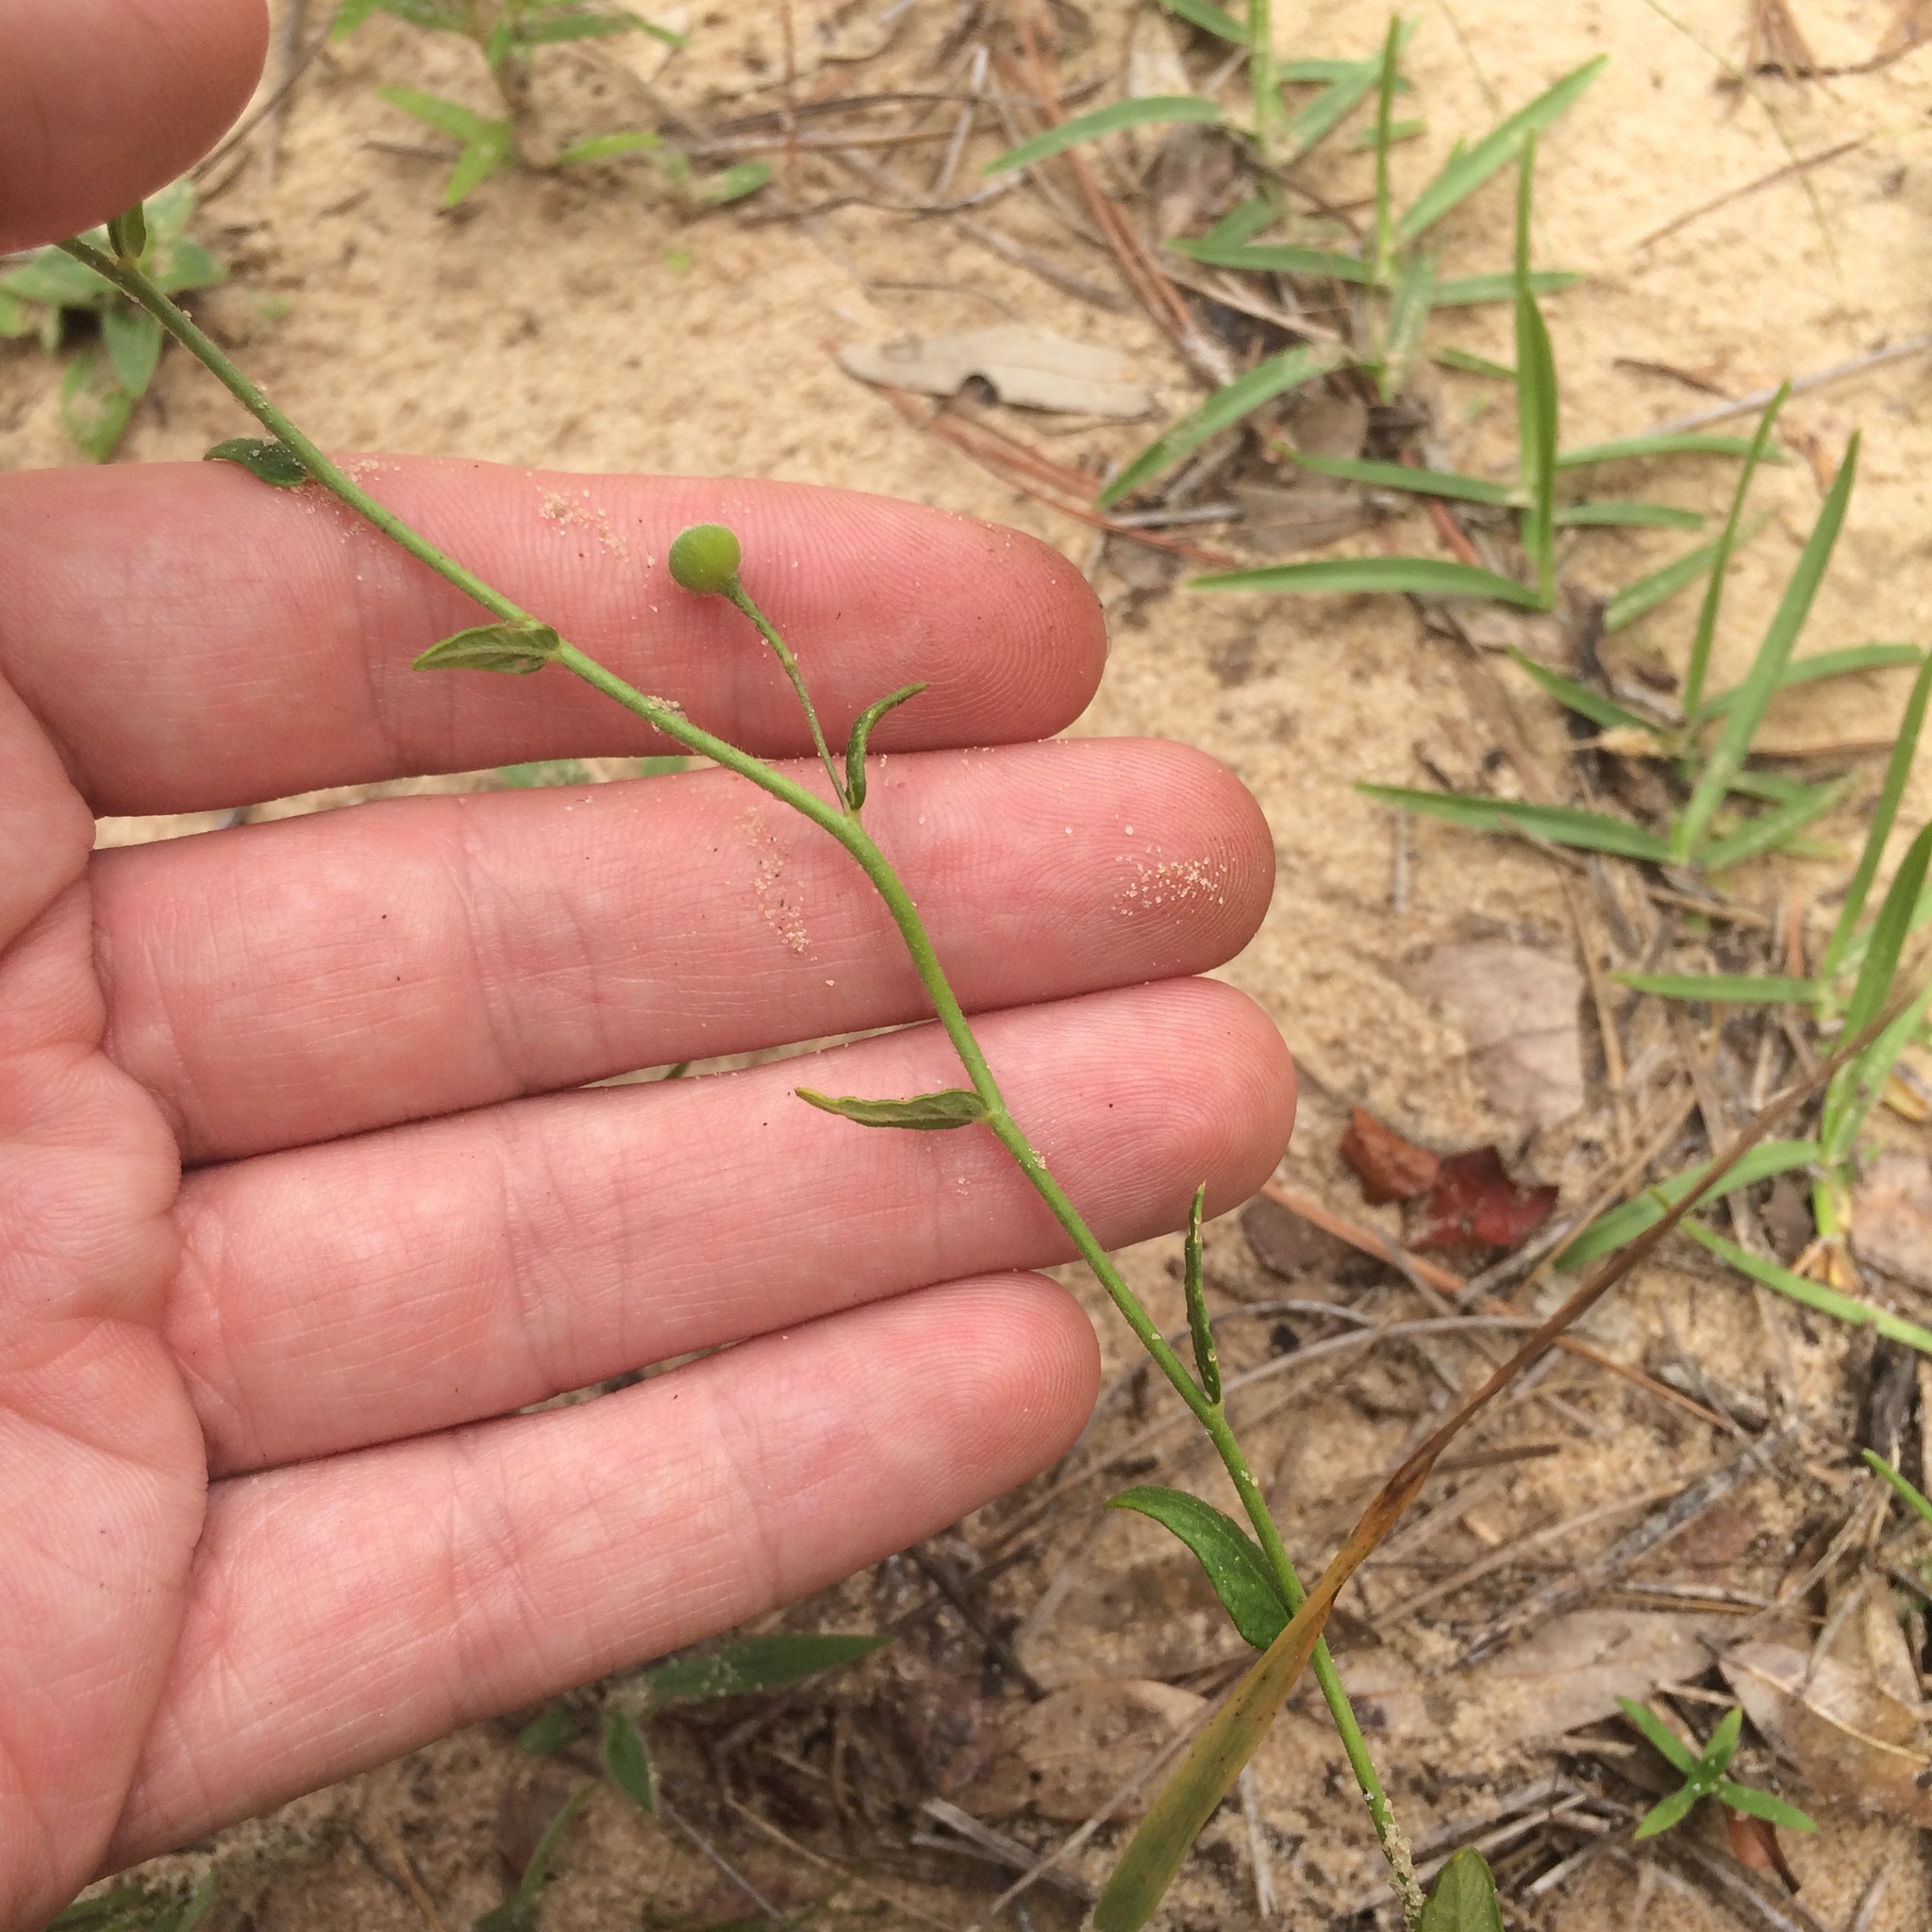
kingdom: Plantae
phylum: Tracheophyta
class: Magnoliopsida
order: Malpighiales
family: Turneraceae
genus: Piriqueta
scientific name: Piriqueta cistoides
